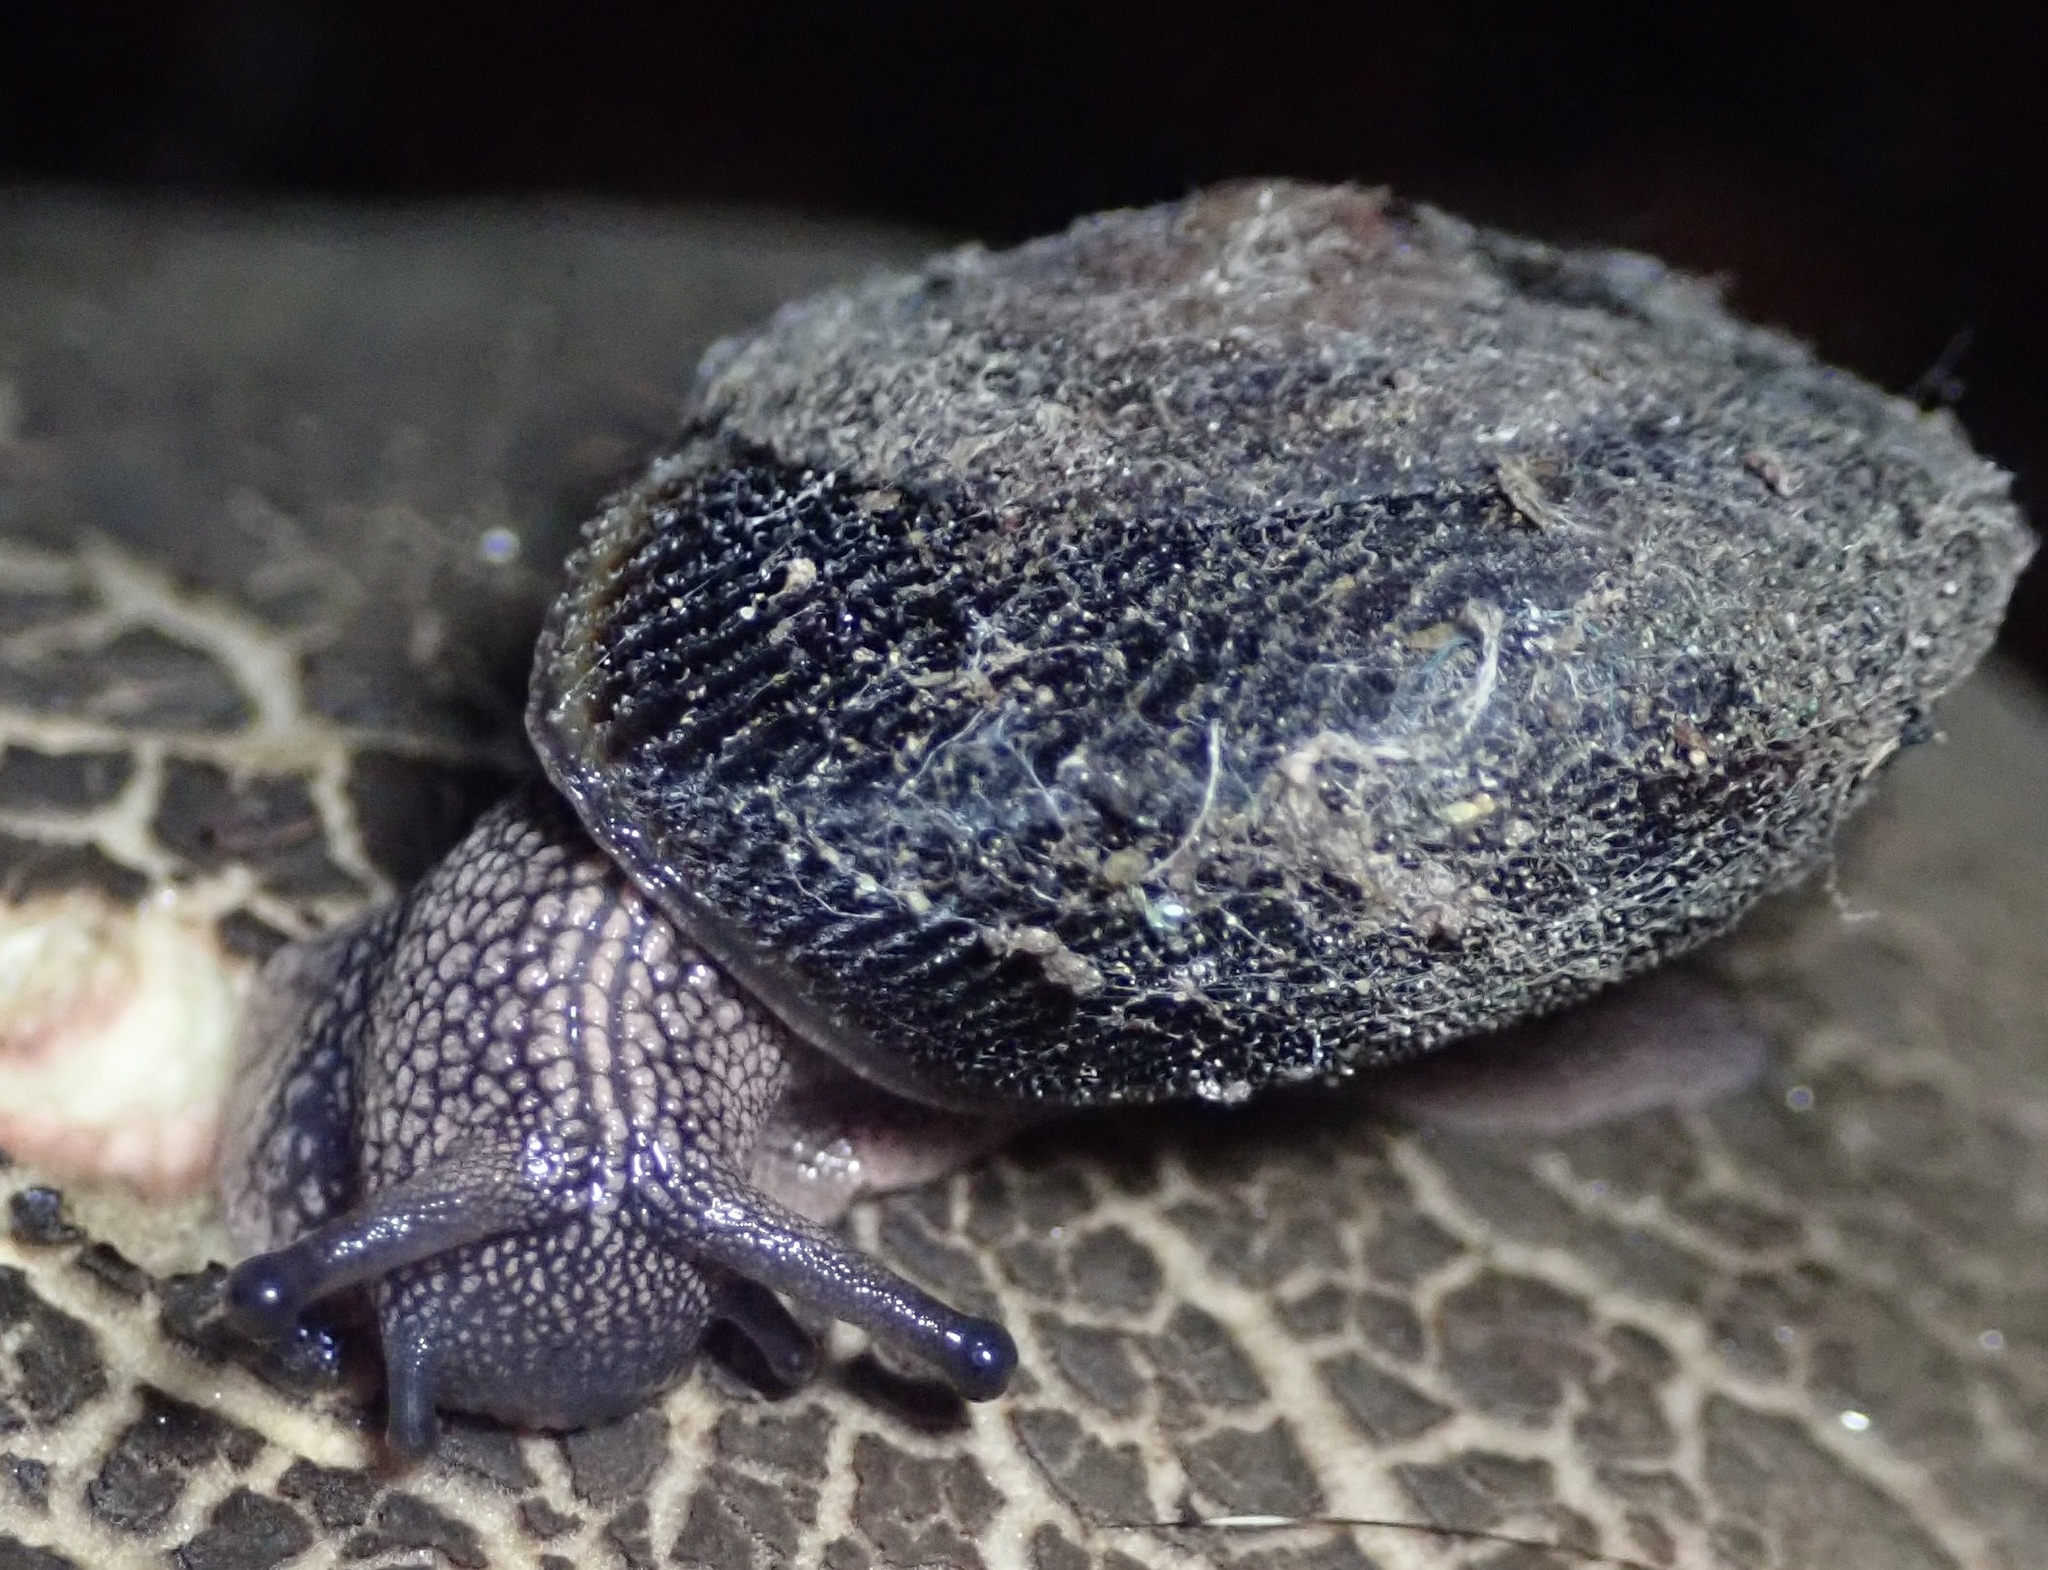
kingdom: Animalia
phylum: Mollusca
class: Gastropoda
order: Stylommatophora
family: Xanthonychidae
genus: Monadenia
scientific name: Monadenia infumata
